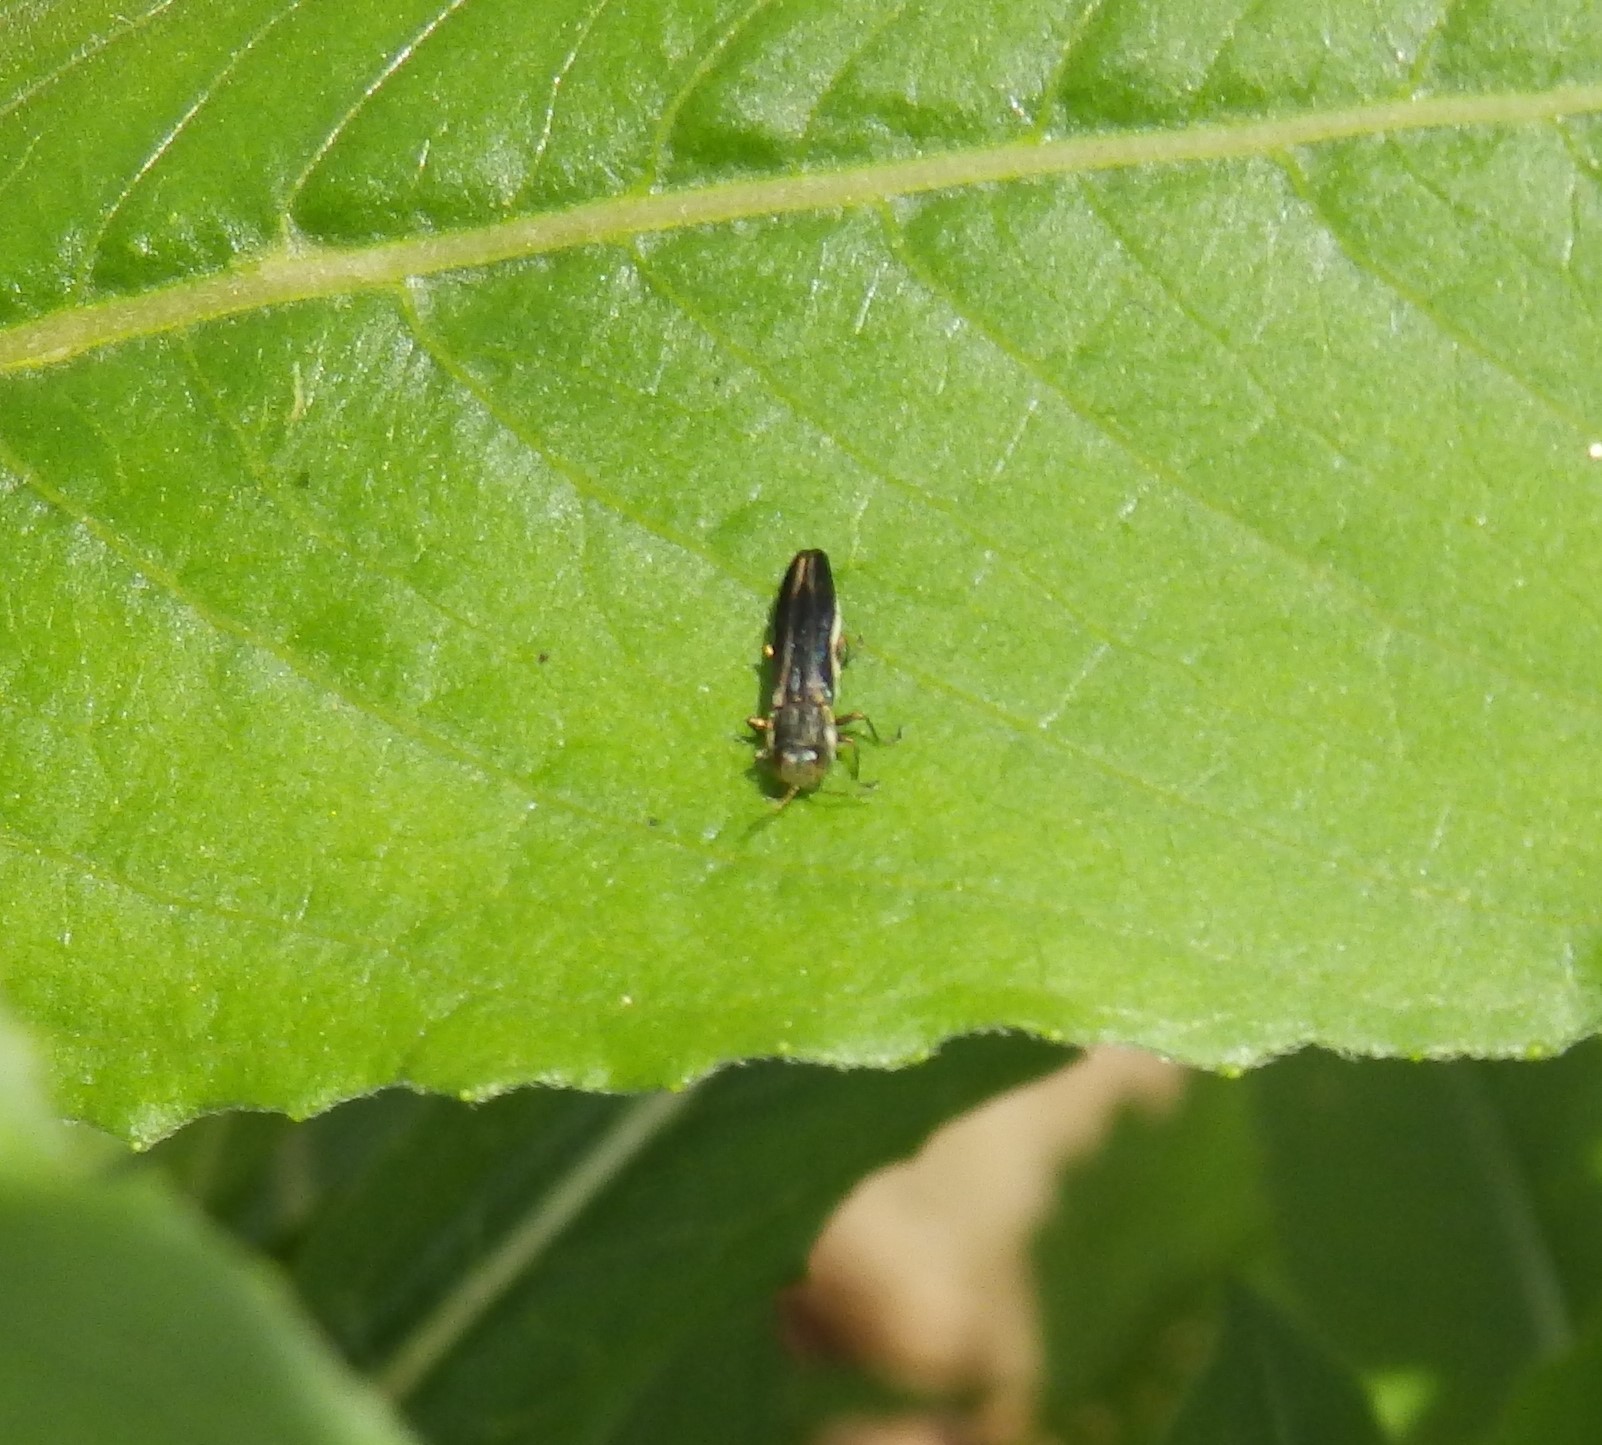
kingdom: Animalia
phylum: Arthropoda
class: Insecta
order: Coleoptera
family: Buprestidae
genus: Agrilus
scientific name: Agrilus bilineatus
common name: Two-lined chestnut borer
